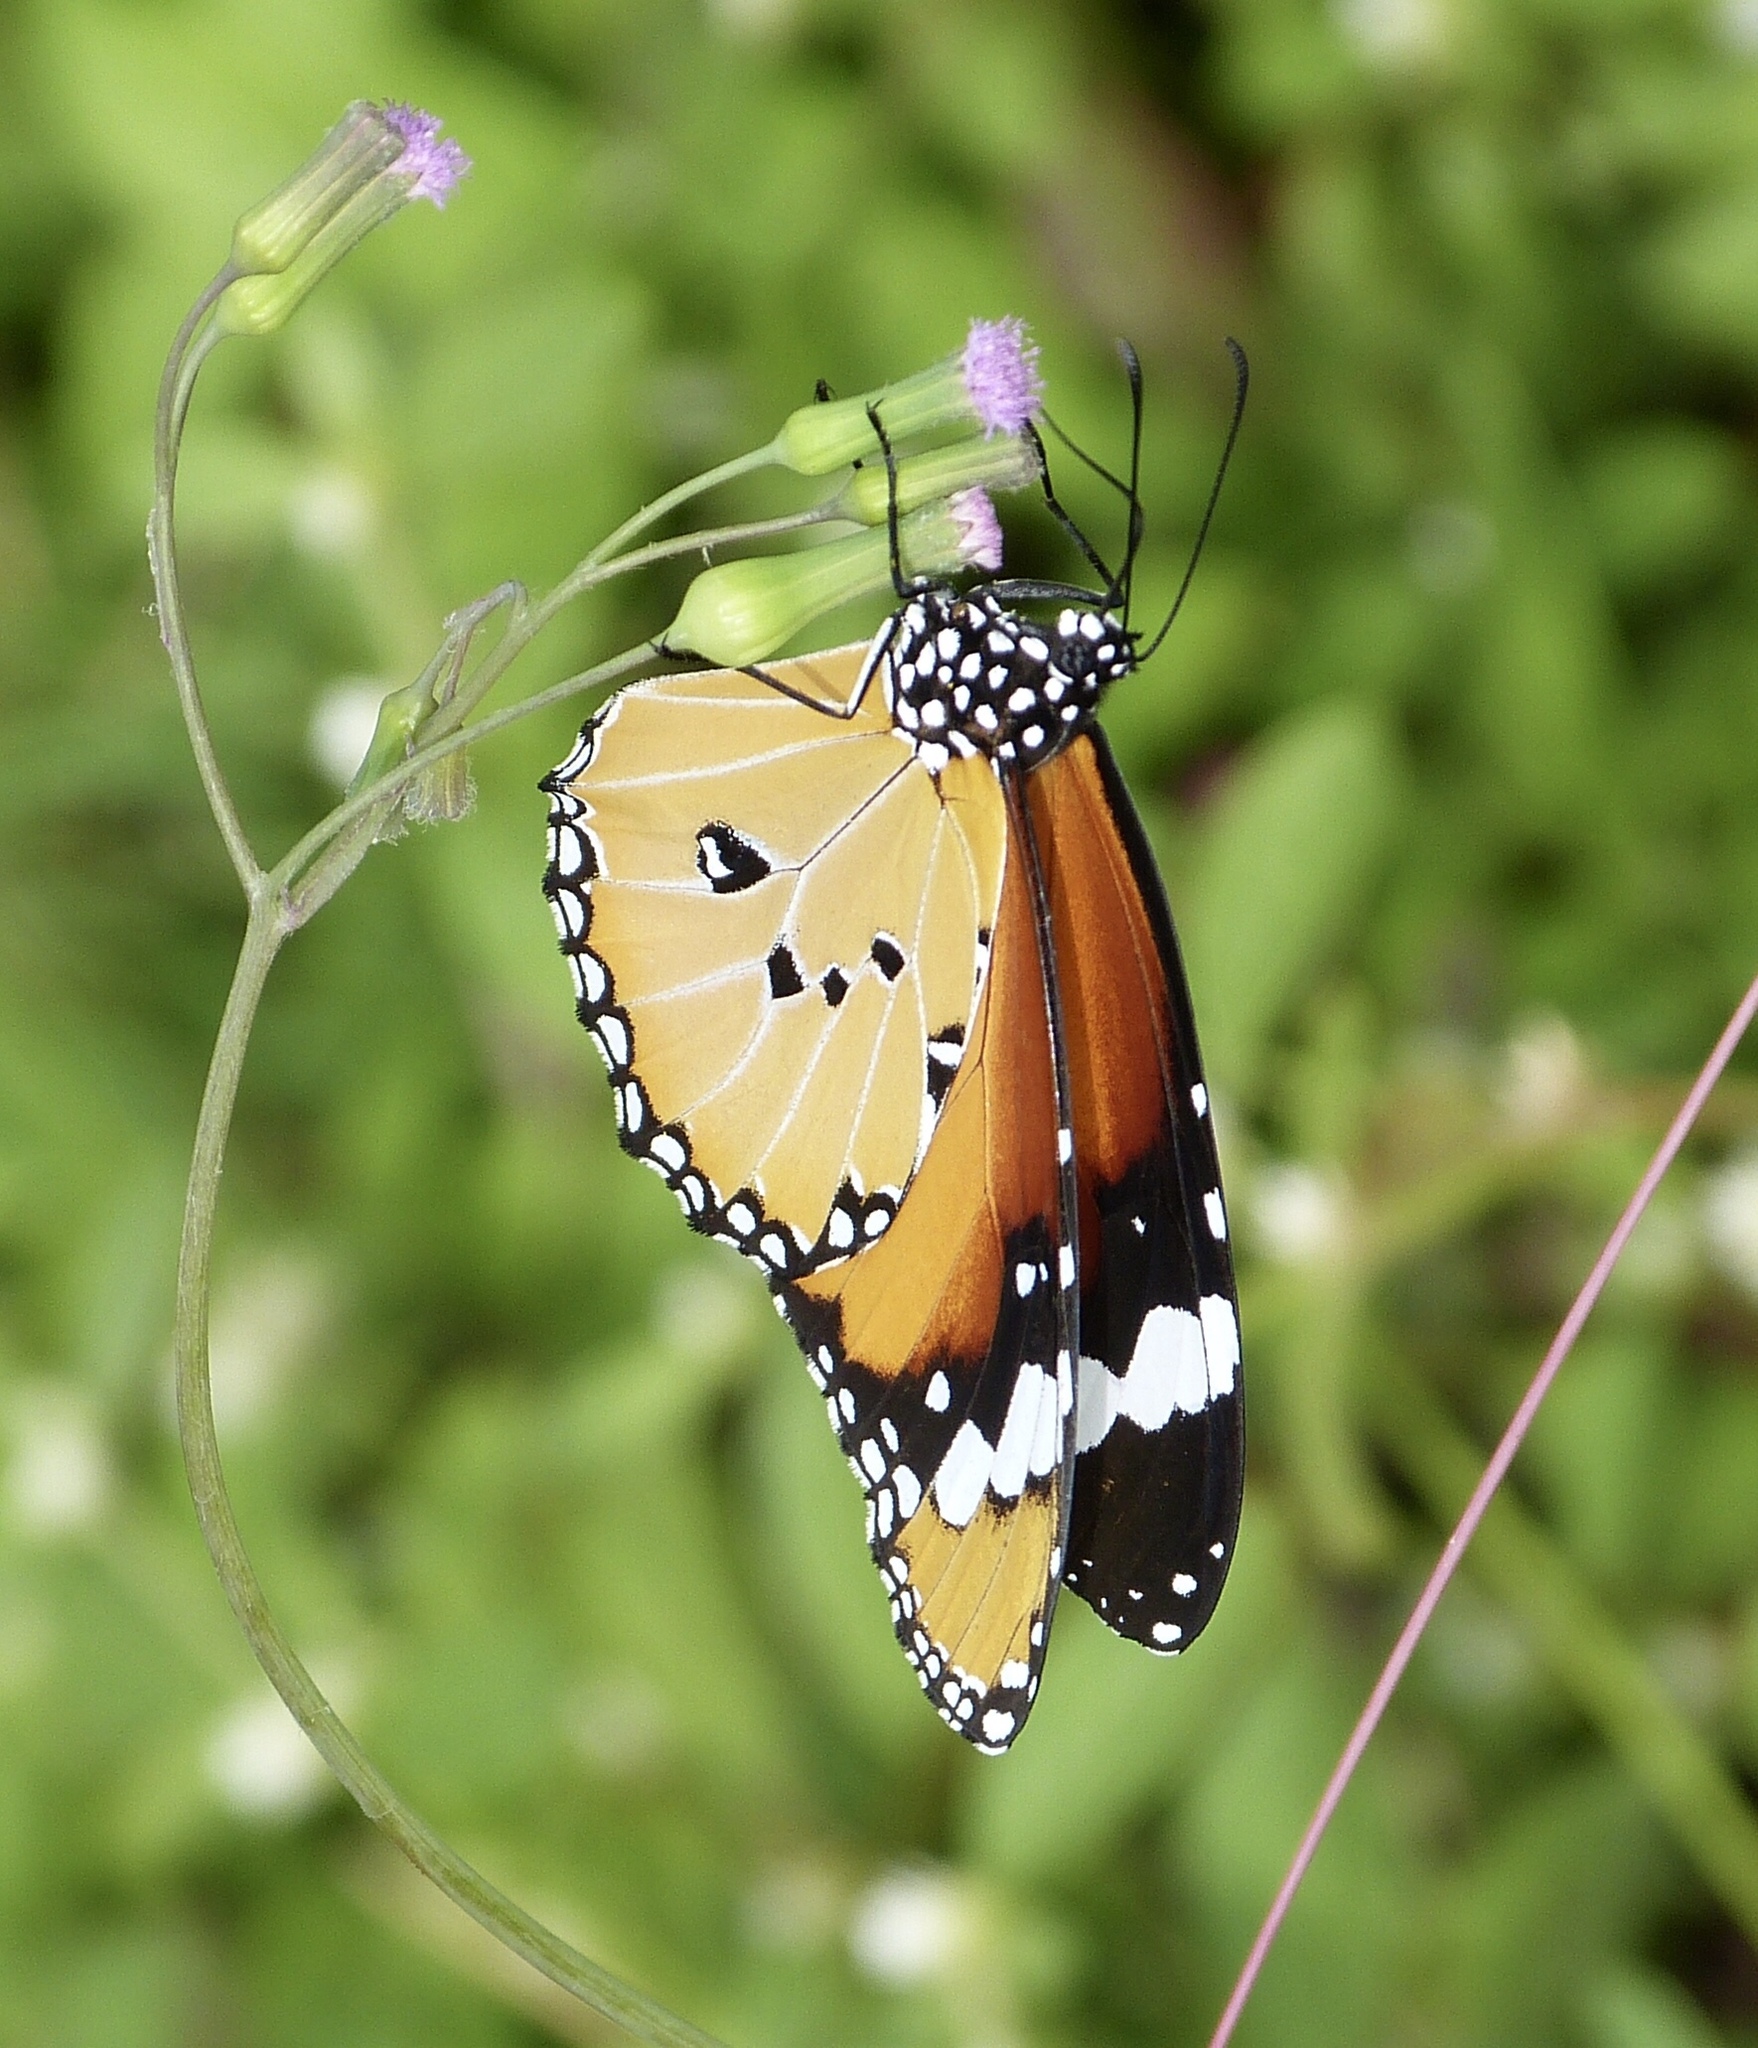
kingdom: Animalia
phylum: Arthropoda
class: Insecta
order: Lepidoptera
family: Nymphalidae
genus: Danaus
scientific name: Danaus chrysippus
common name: Plain tiger
